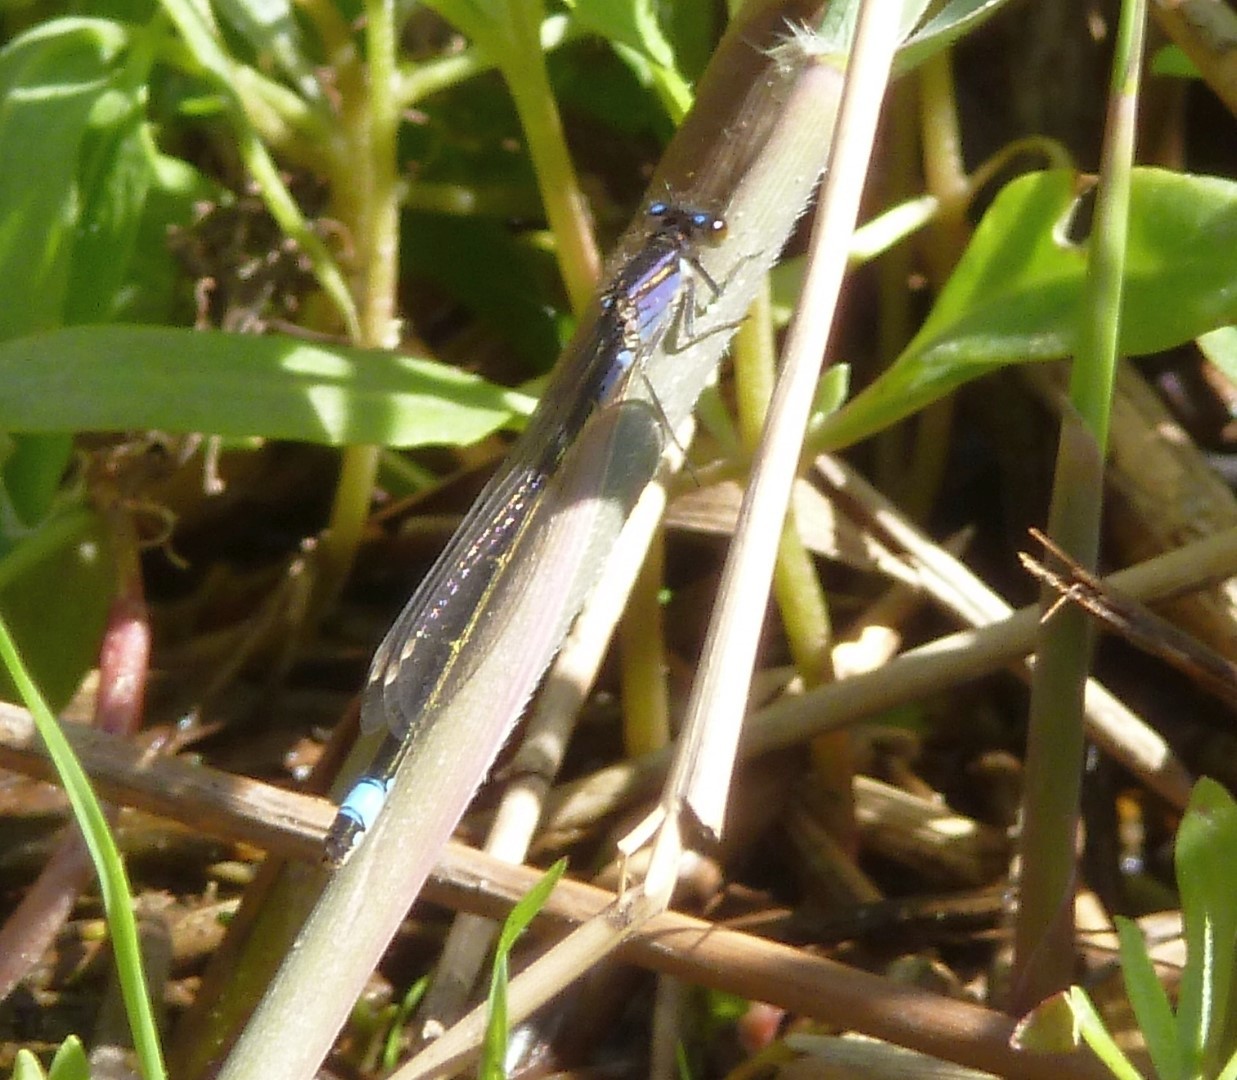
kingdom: Animalia
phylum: Arthropoda
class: Insecta
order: Odonata
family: Coenagrionidae
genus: Ischnura
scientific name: Ischnura elegans
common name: Blue-tailed damselfly
